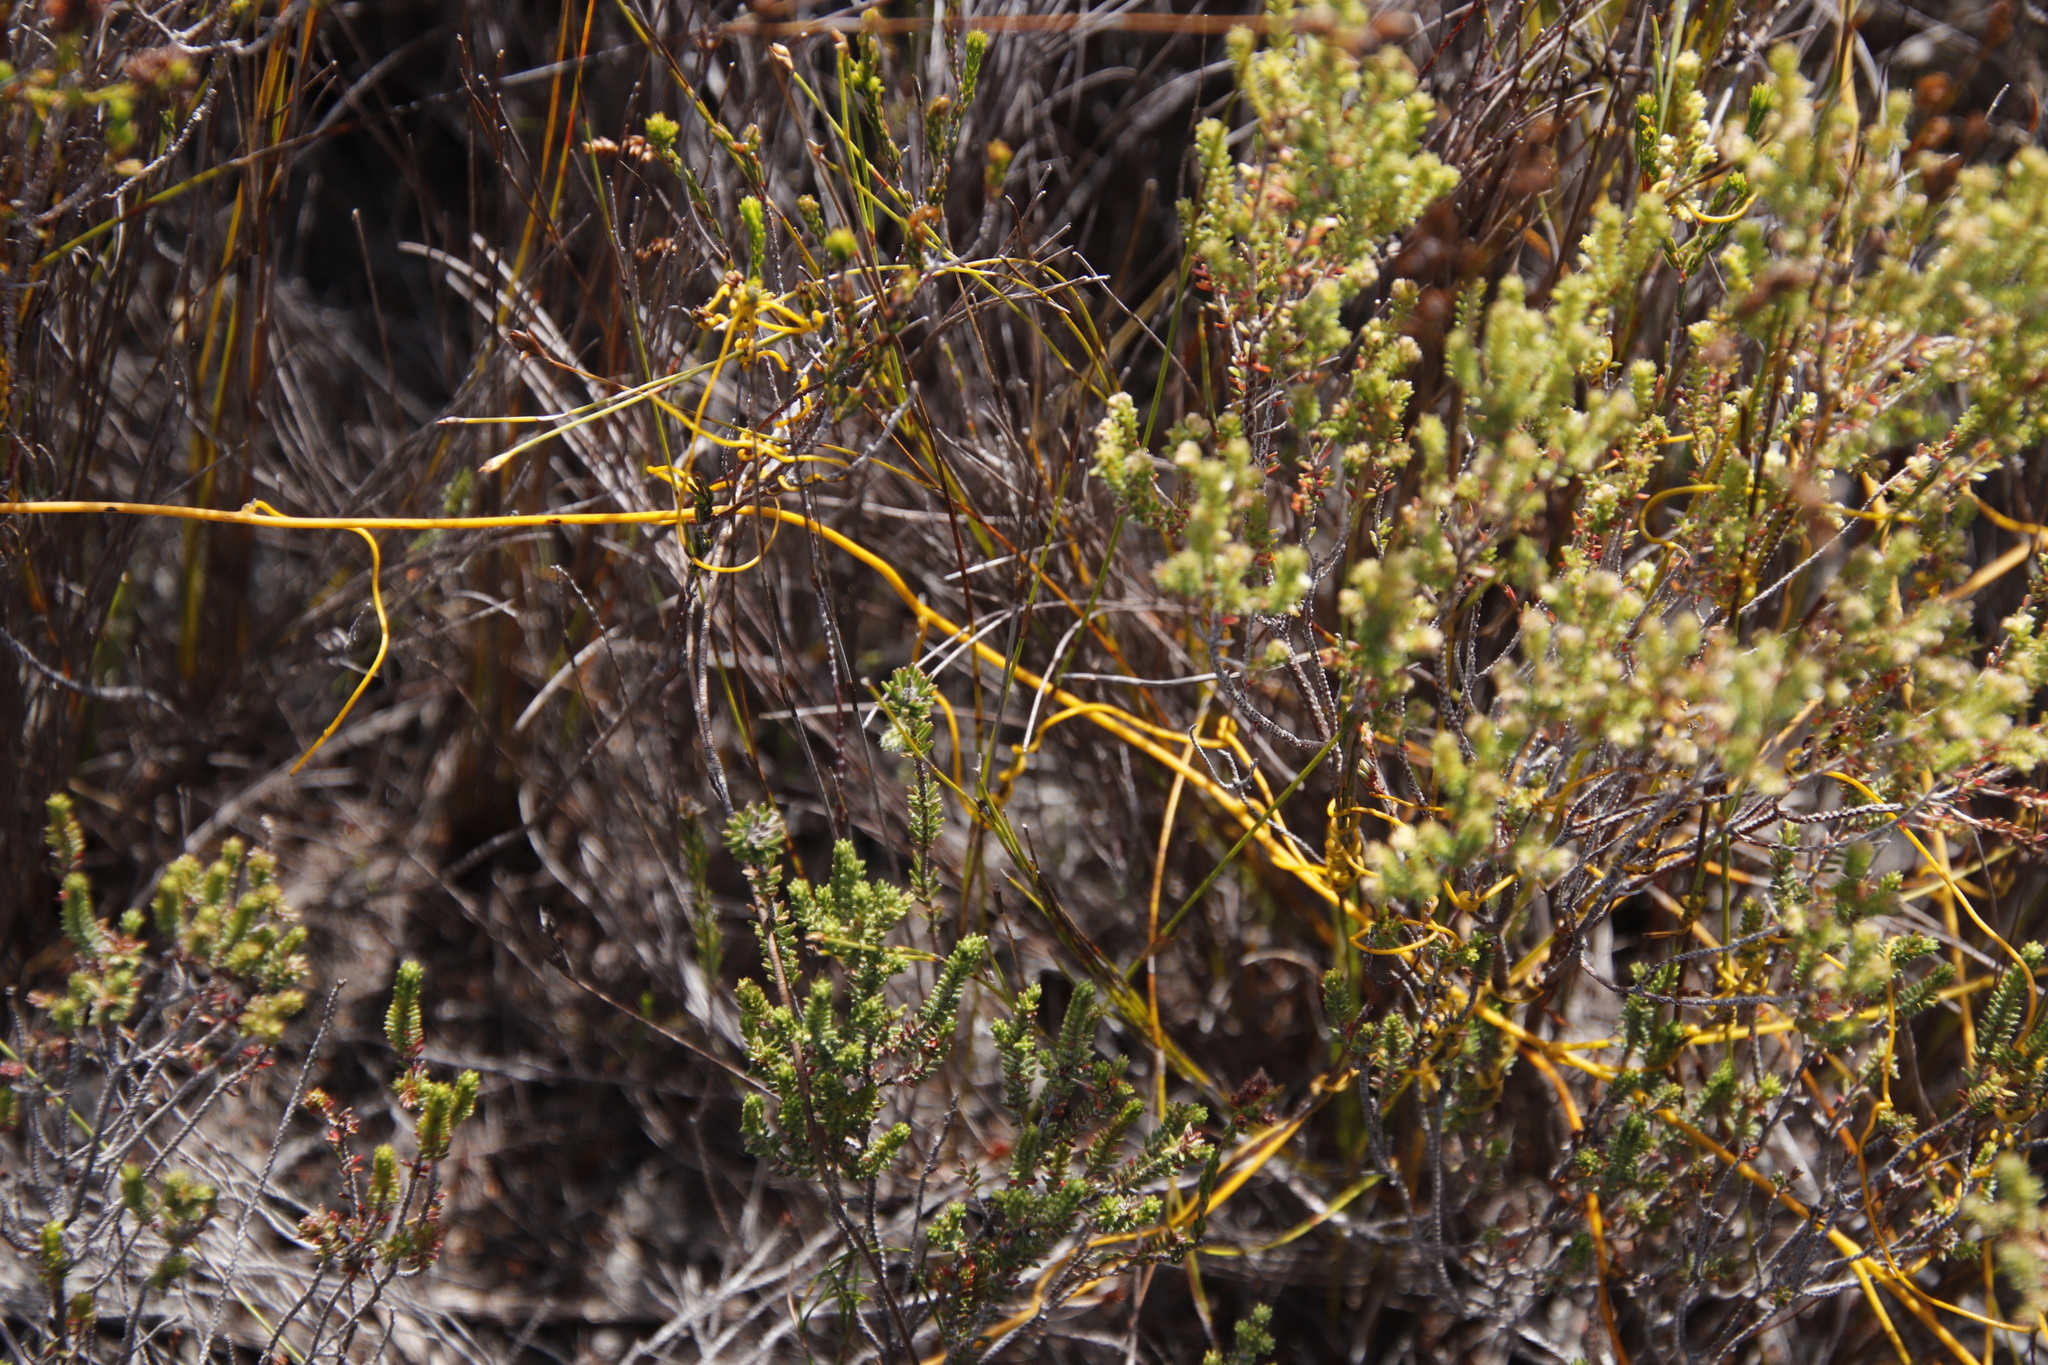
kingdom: Plantae
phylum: Tracheophyta
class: Magnoliopsida
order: Laurales
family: Lauraceae
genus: Cassytha
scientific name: Cassytha ciliolata
